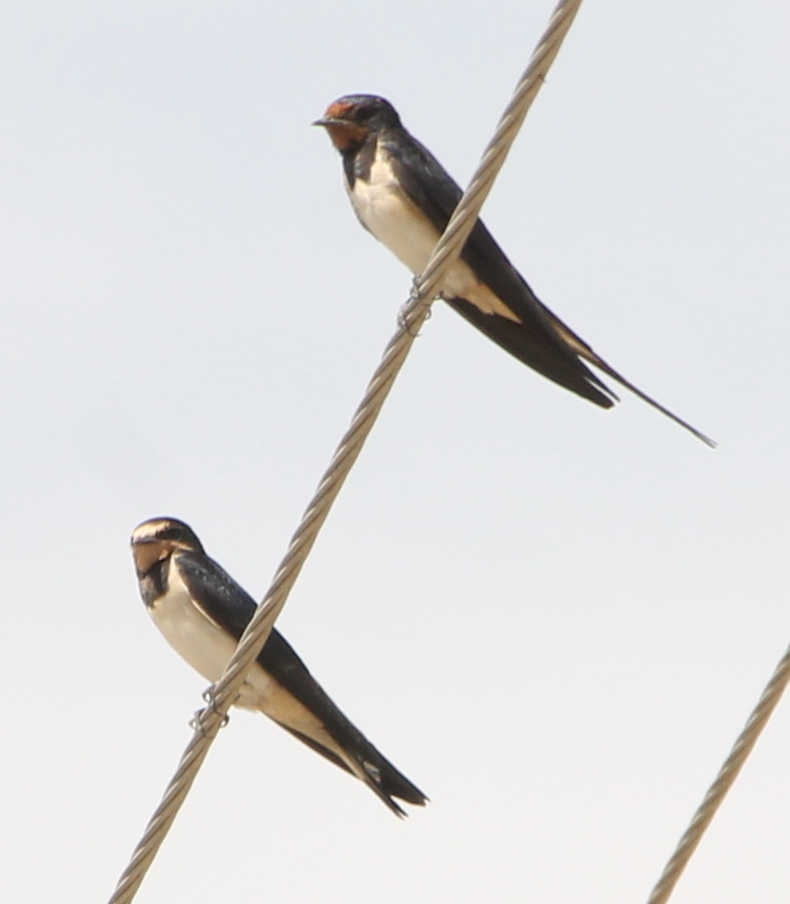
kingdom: Animalia
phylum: Chordata
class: Aves
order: Passeriformes
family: Hirundinidae
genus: Hirundo
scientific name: Hirundo rustica
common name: Barn swallow
